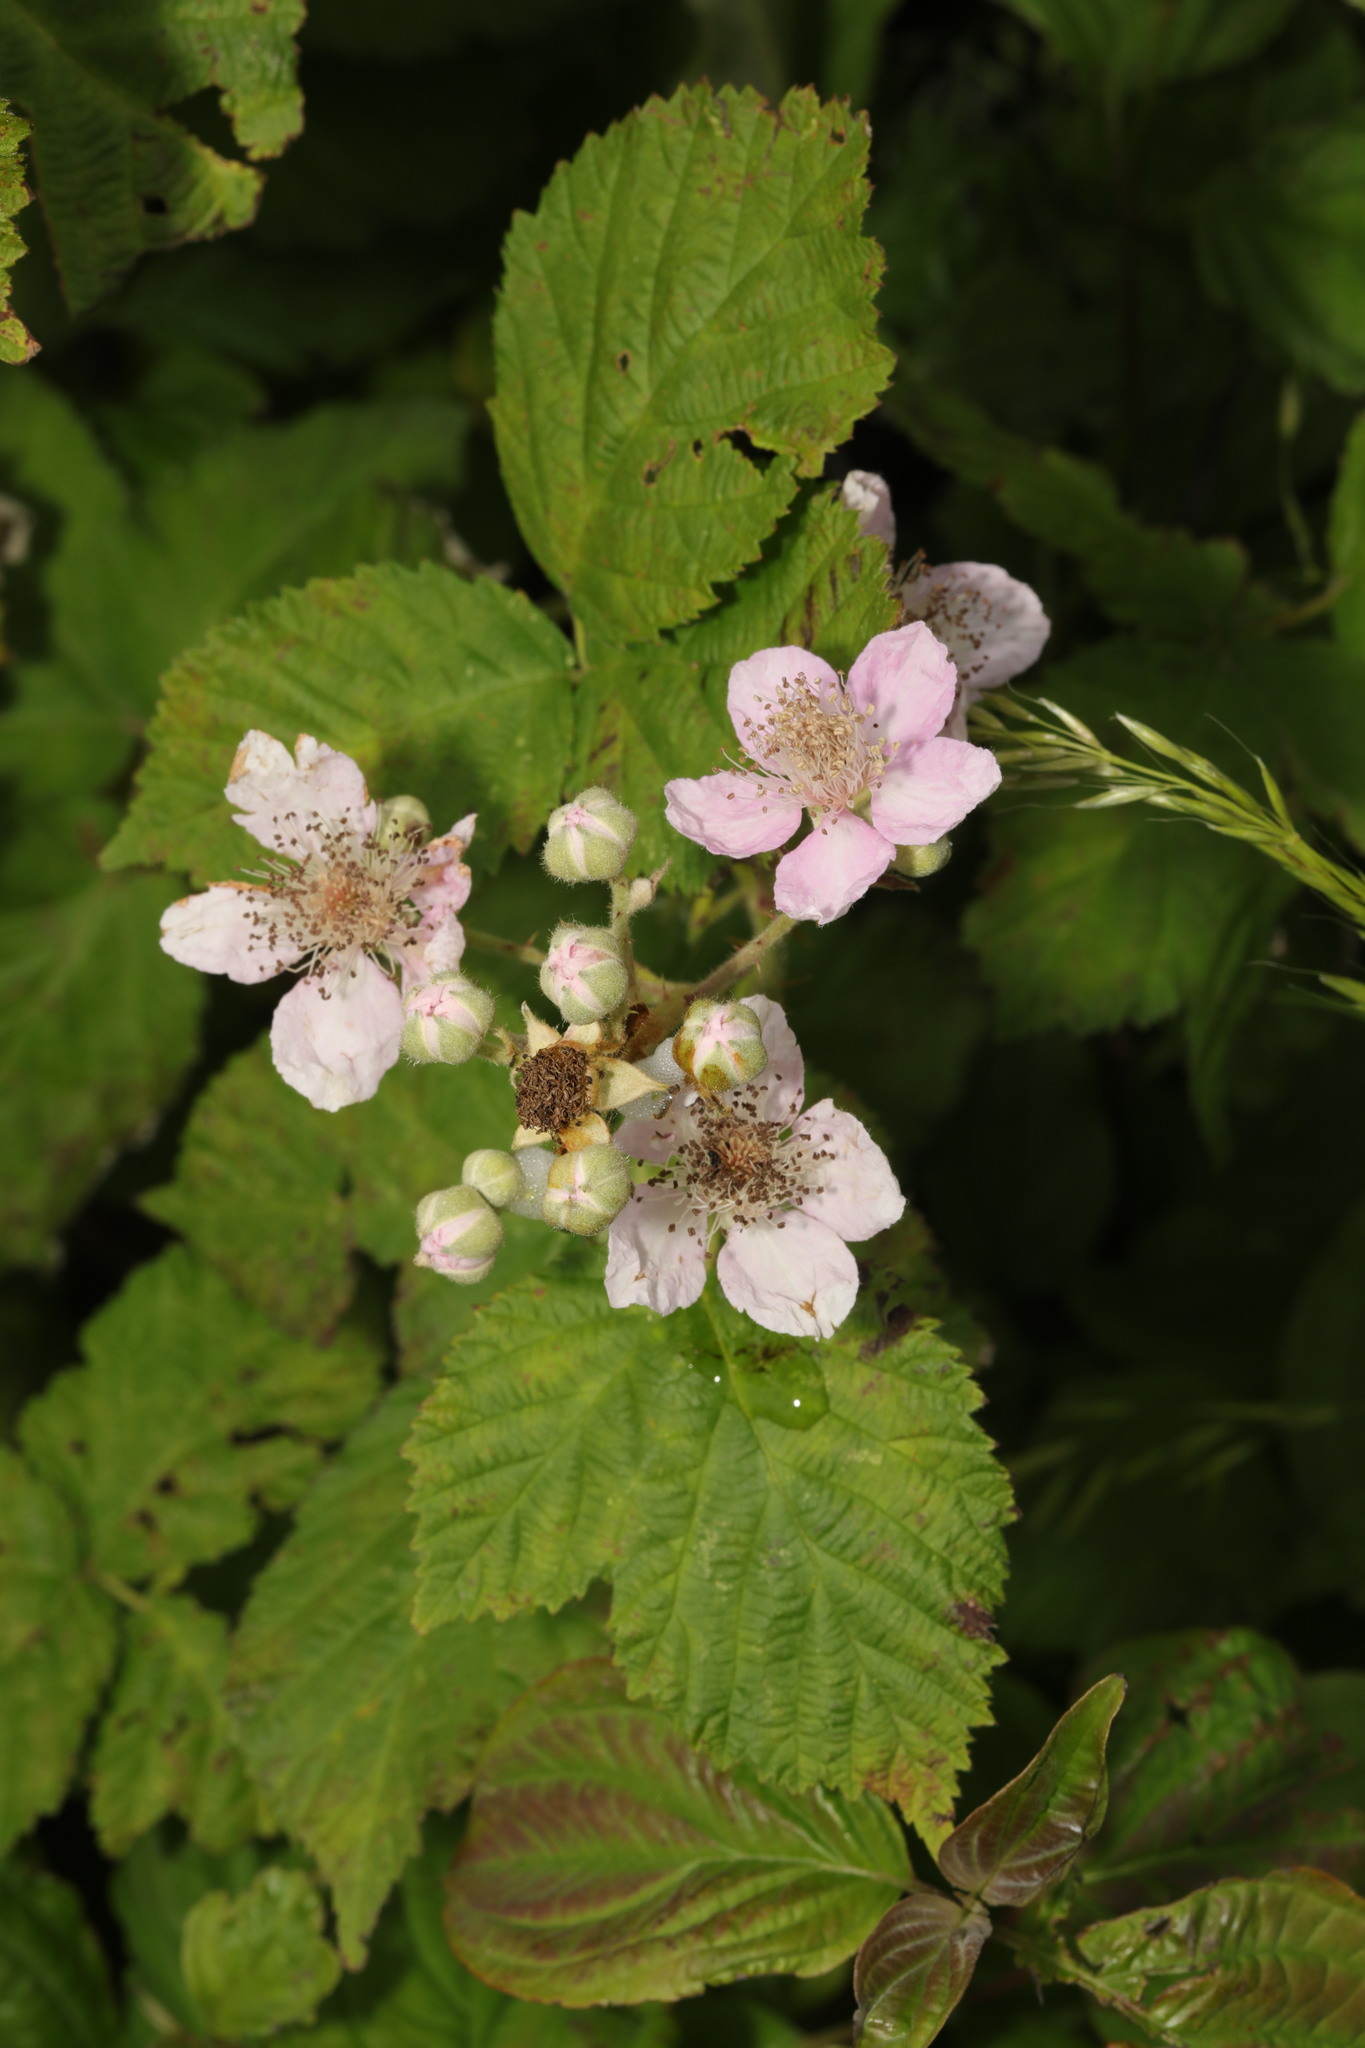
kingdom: Plantae
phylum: Tracheophyta
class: Magnoliopsida
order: Rosales
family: Rosaceae
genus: Rubus
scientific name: Rubus armeniacus
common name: Himalayan blackberry
